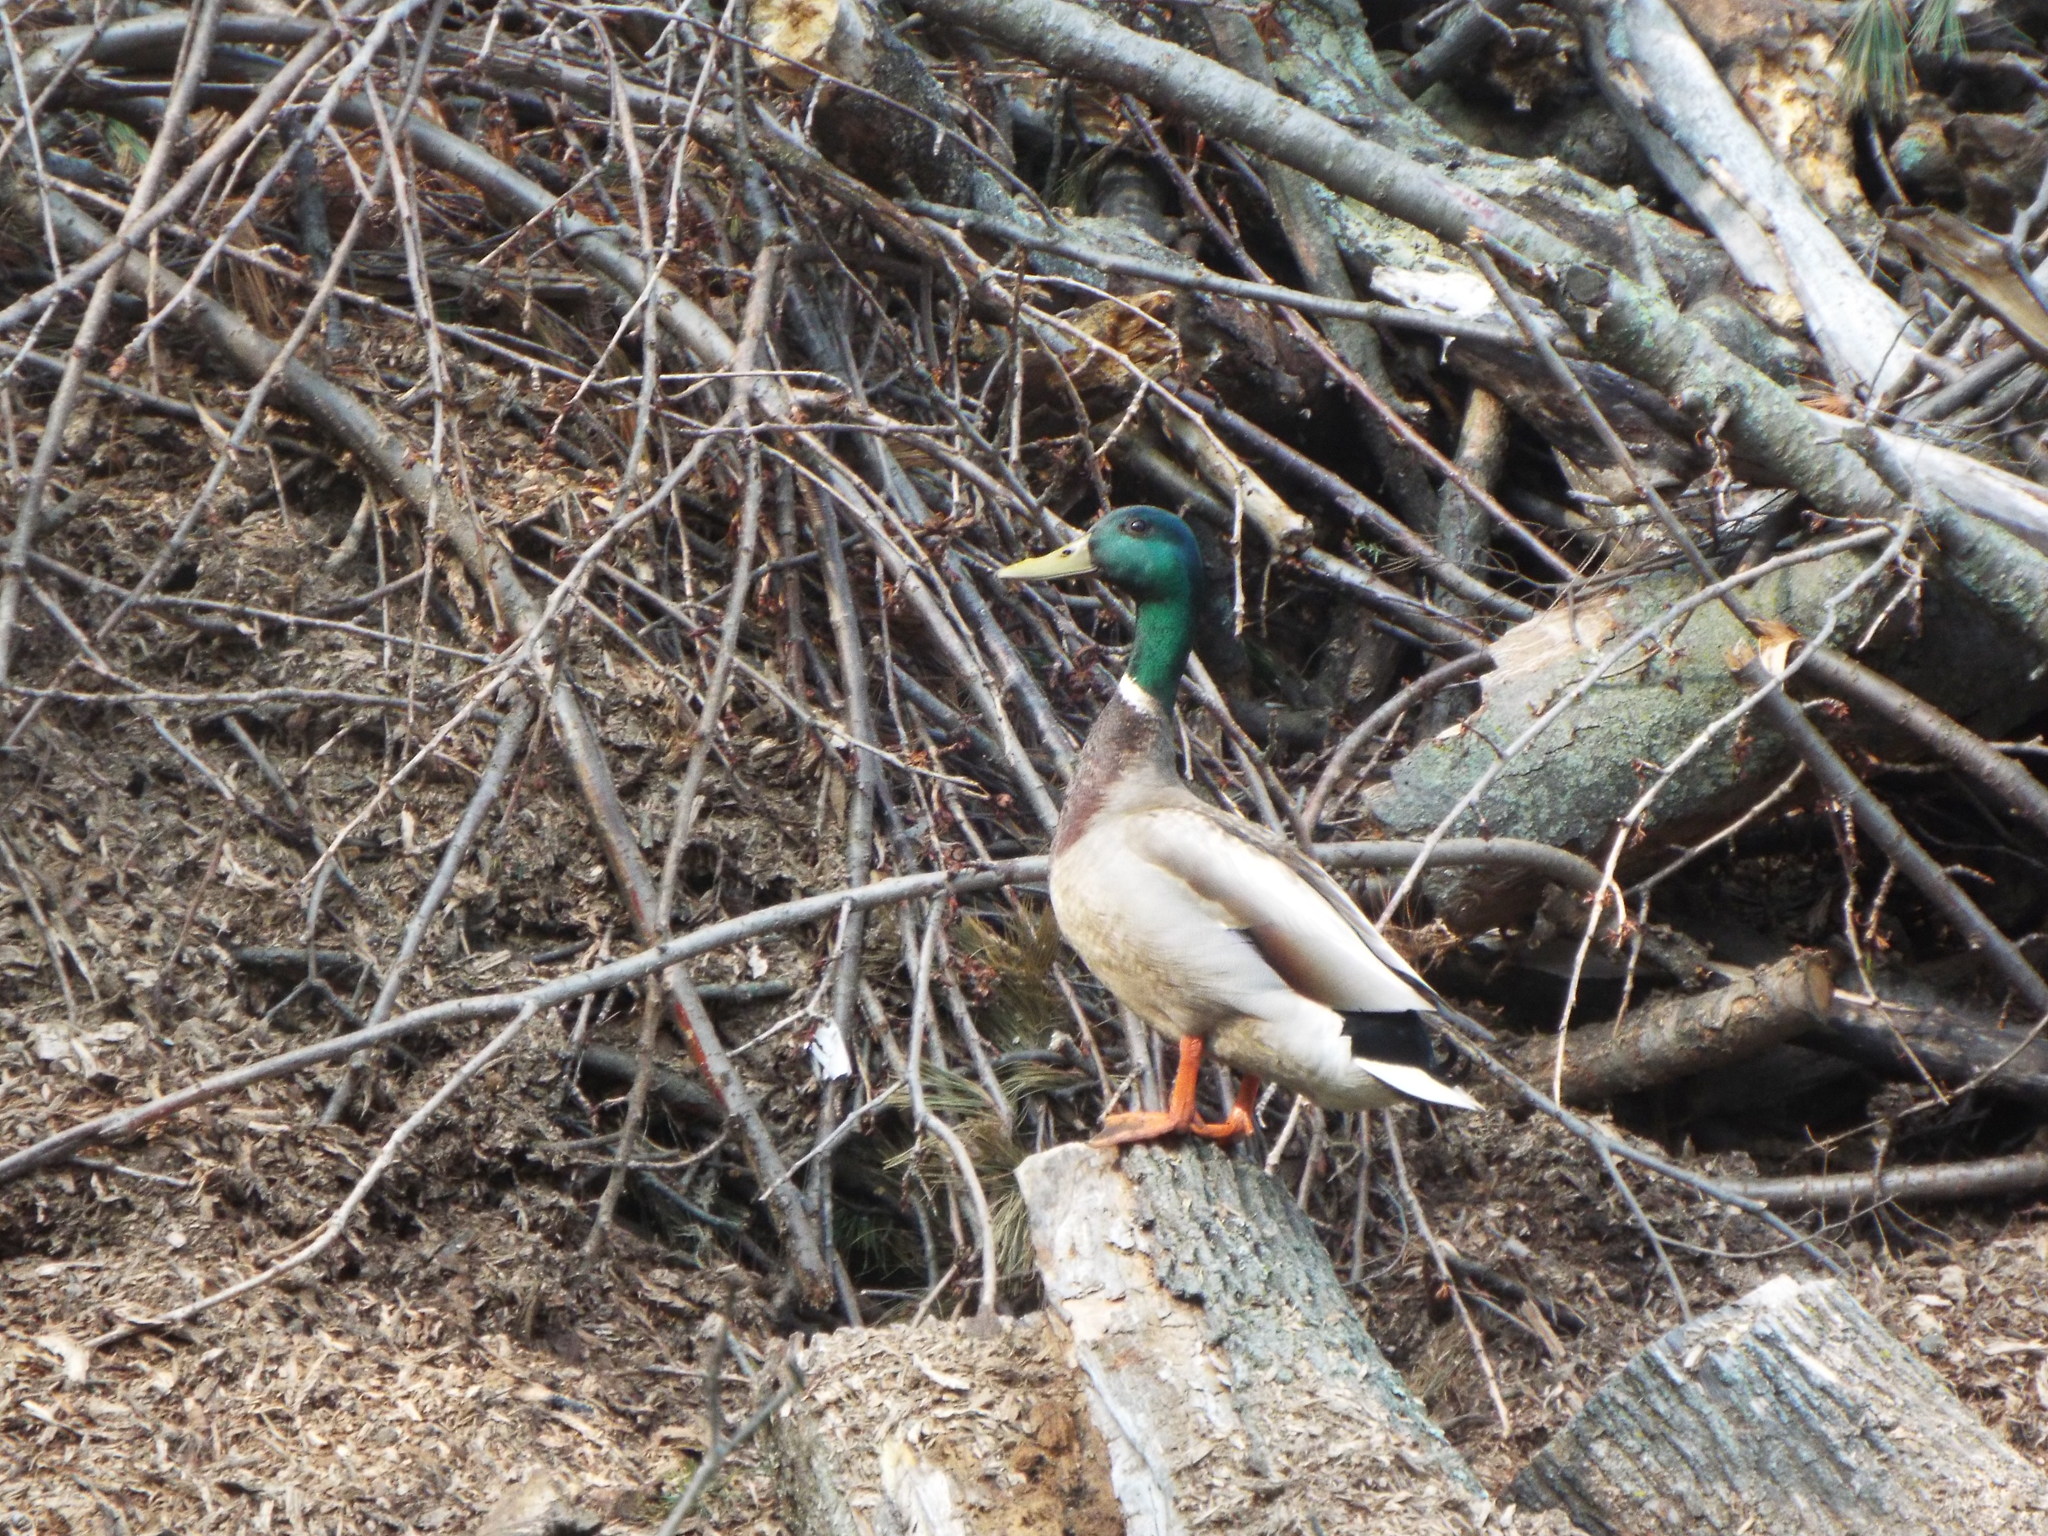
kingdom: Animalia
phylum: Chordata
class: Aves
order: Anseriformes
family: Anatidae
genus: Anas
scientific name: Anas platyrhynchos
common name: Mallard
